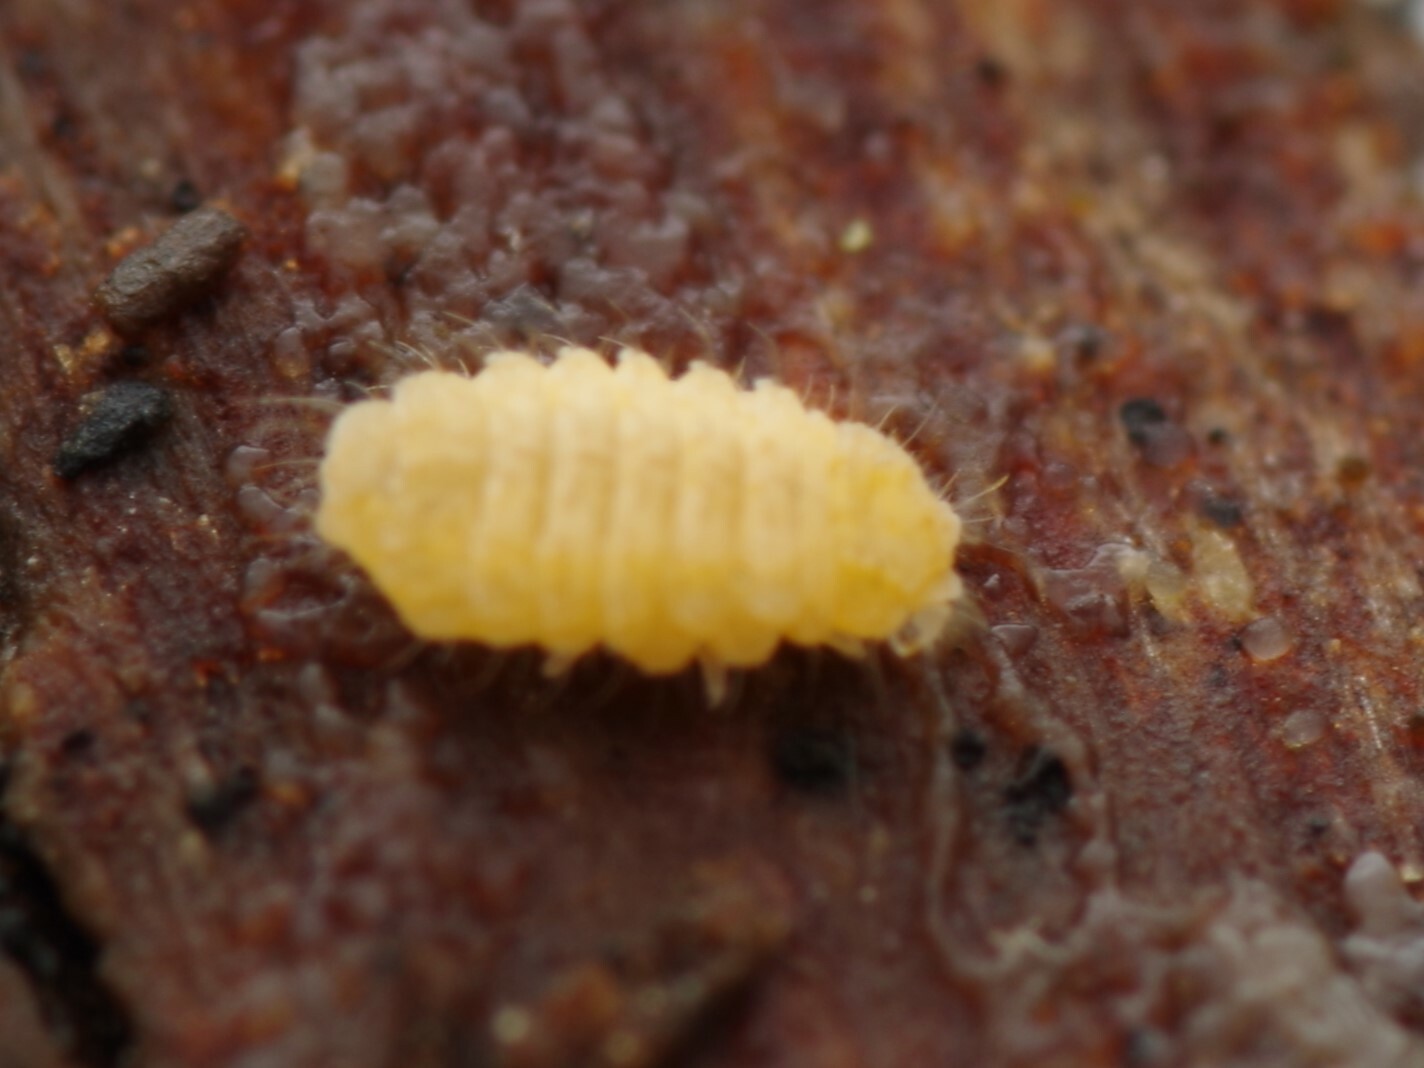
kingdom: Animalia
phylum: Arthropoda
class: Collembola
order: Poduromorpha
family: Neanuridae
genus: Monobella
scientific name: Monobella grassei
